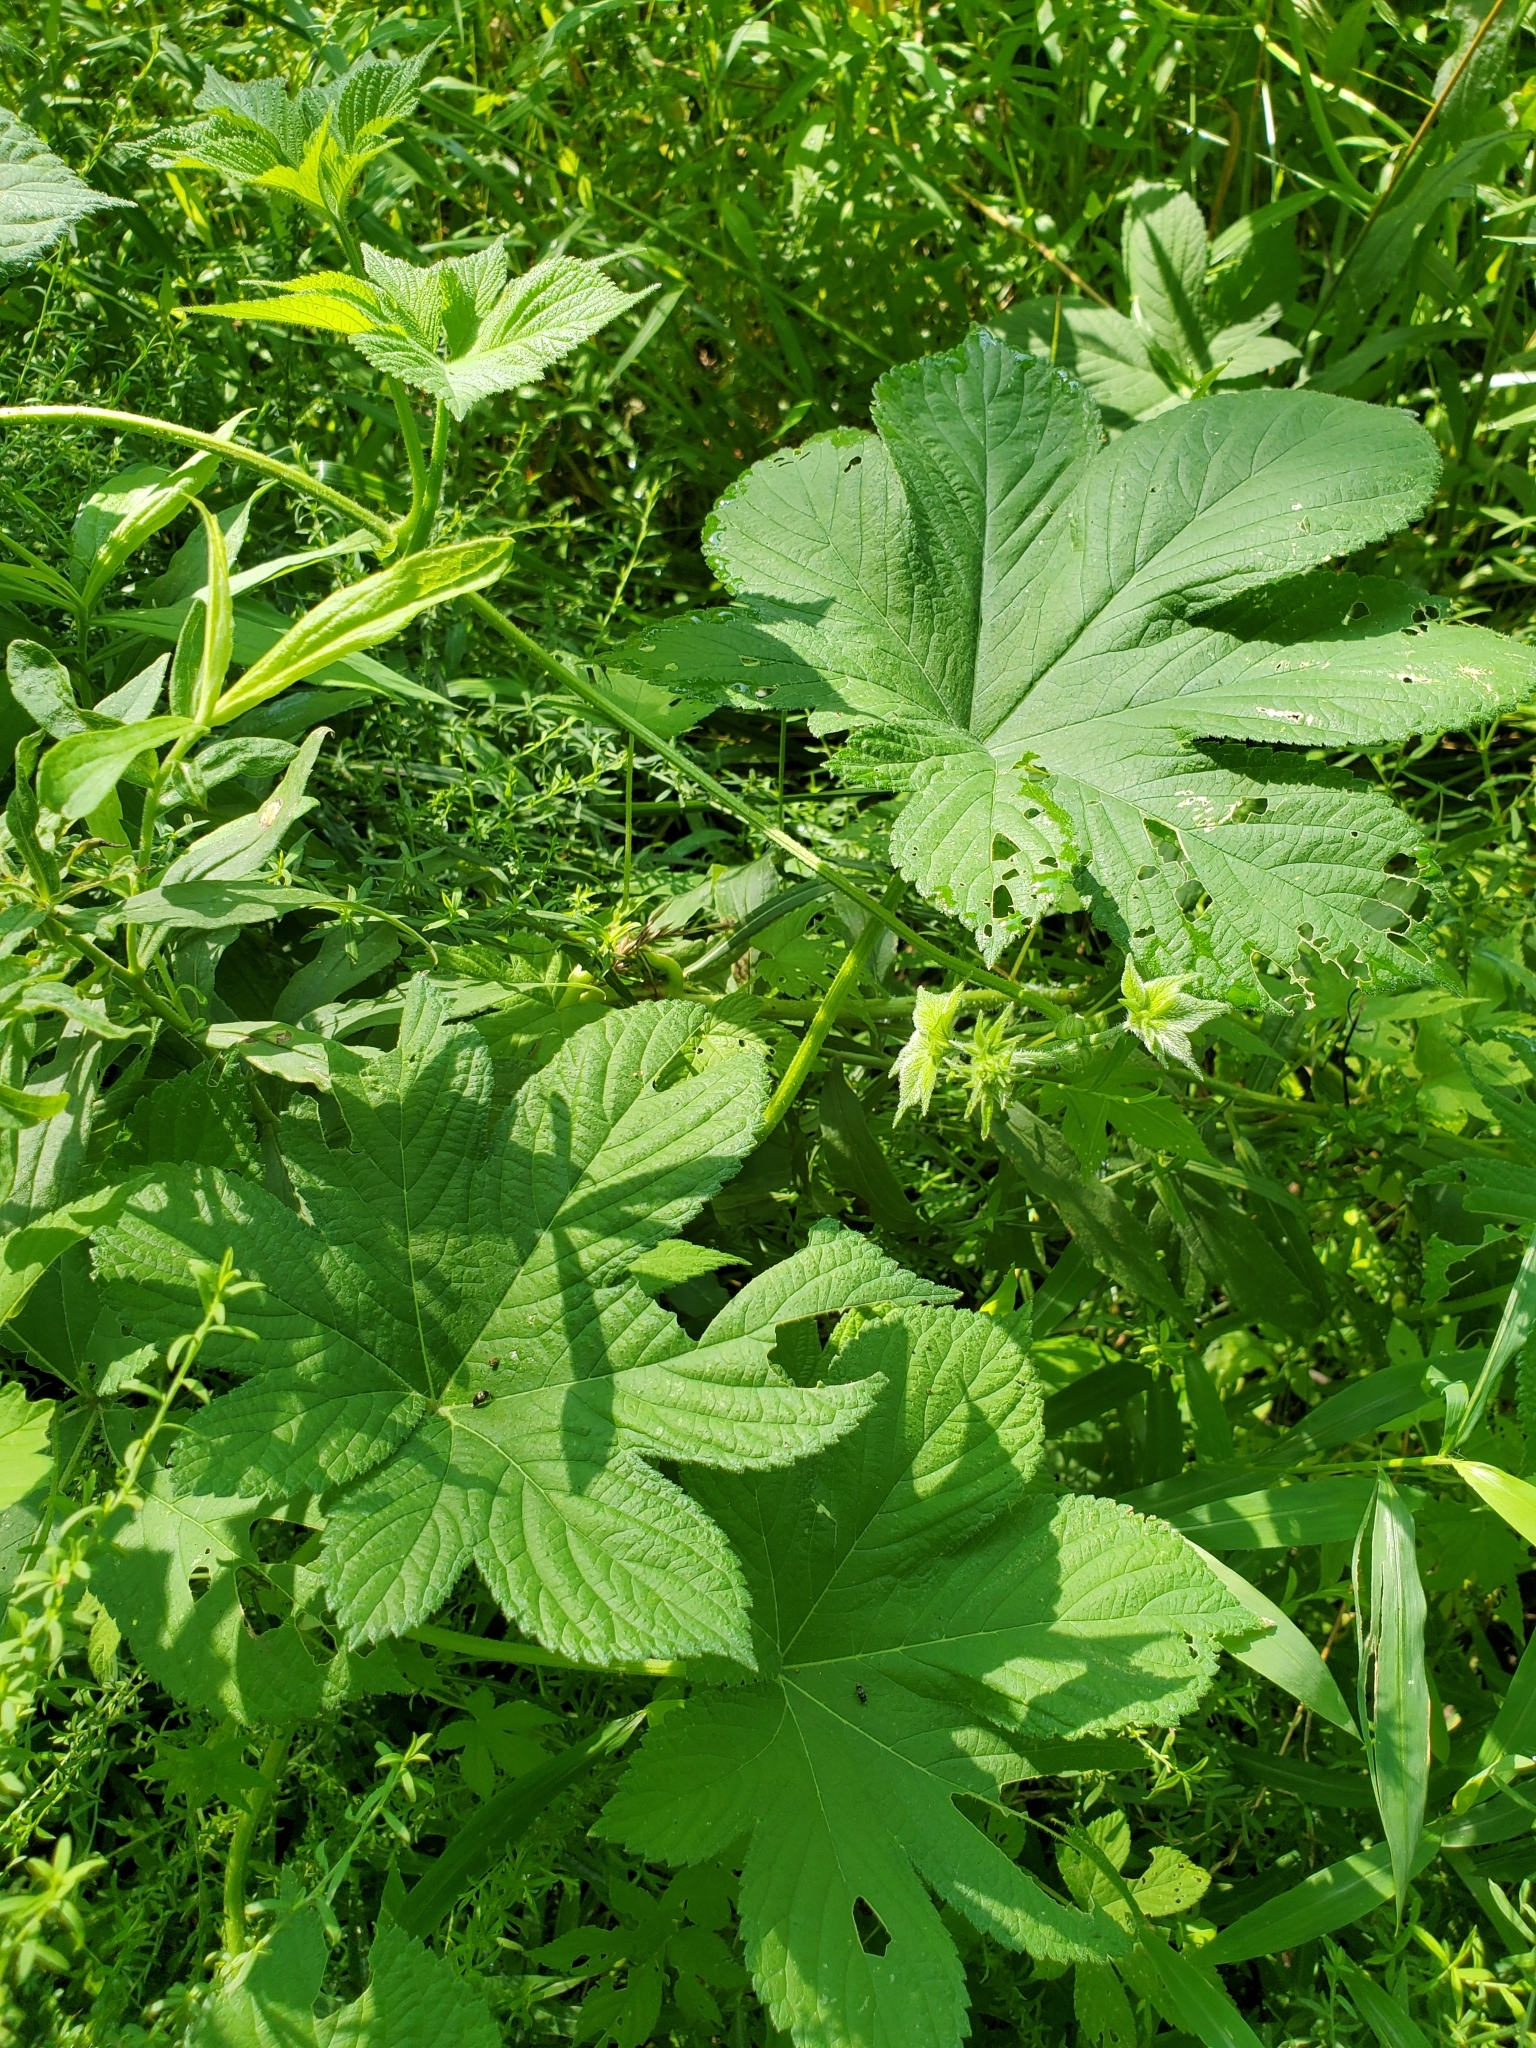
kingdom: Plantae
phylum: Tracheophyta
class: Magnoliopsida
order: Rosales
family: Cannabaceae
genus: Humulus
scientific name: Humulus scandens
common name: Japanese hop
